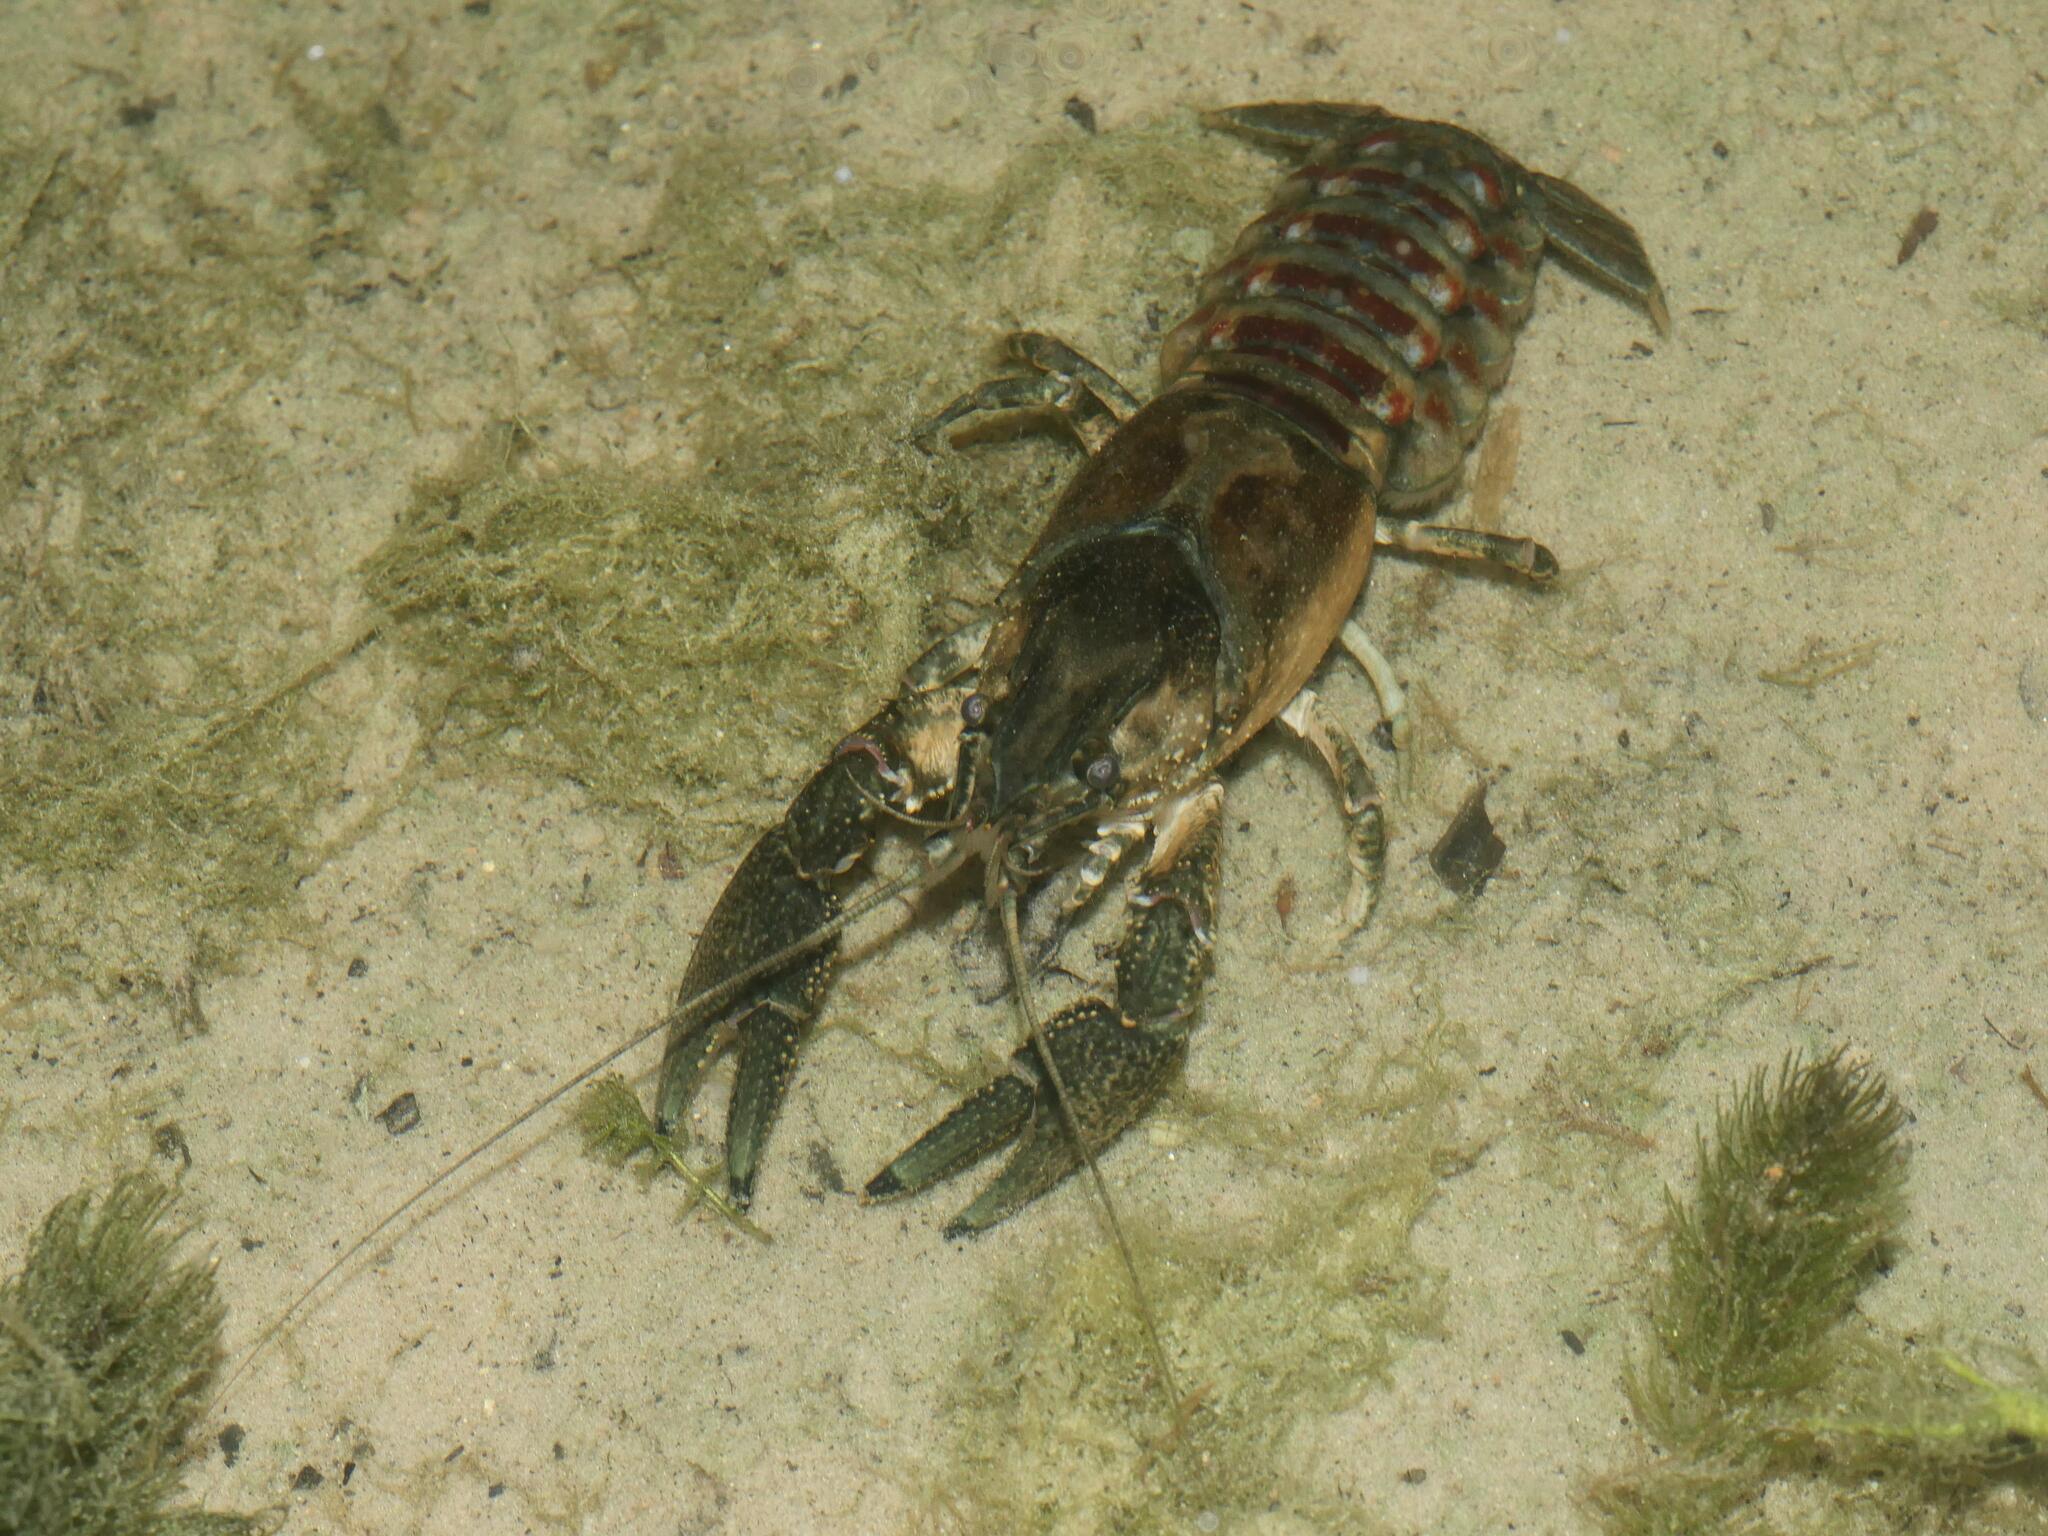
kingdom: Animalia
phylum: Arthropoda
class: Malacostraca
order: Decapoda
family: Cambaridae
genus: Faxonius
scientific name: Faxonius limosus
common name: American crayfish
